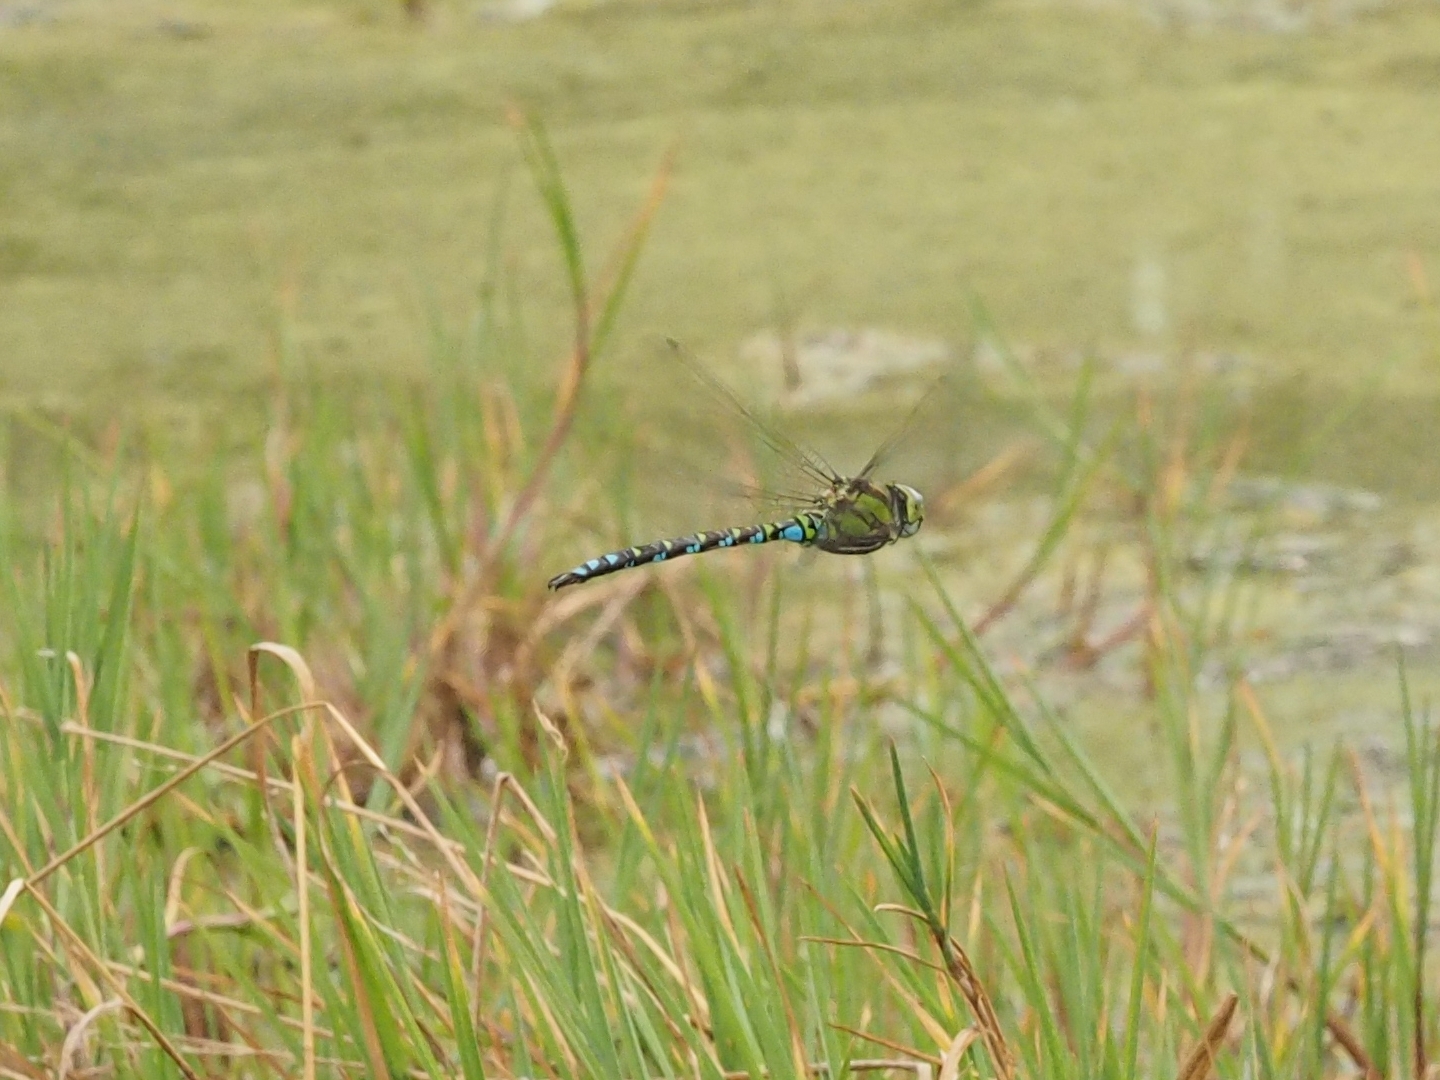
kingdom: Animalia
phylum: Arthropoda
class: Insecta
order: Odonata
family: Aeshnidae
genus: Aeshna
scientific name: Aeshna cyanea
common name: Southern hawker
